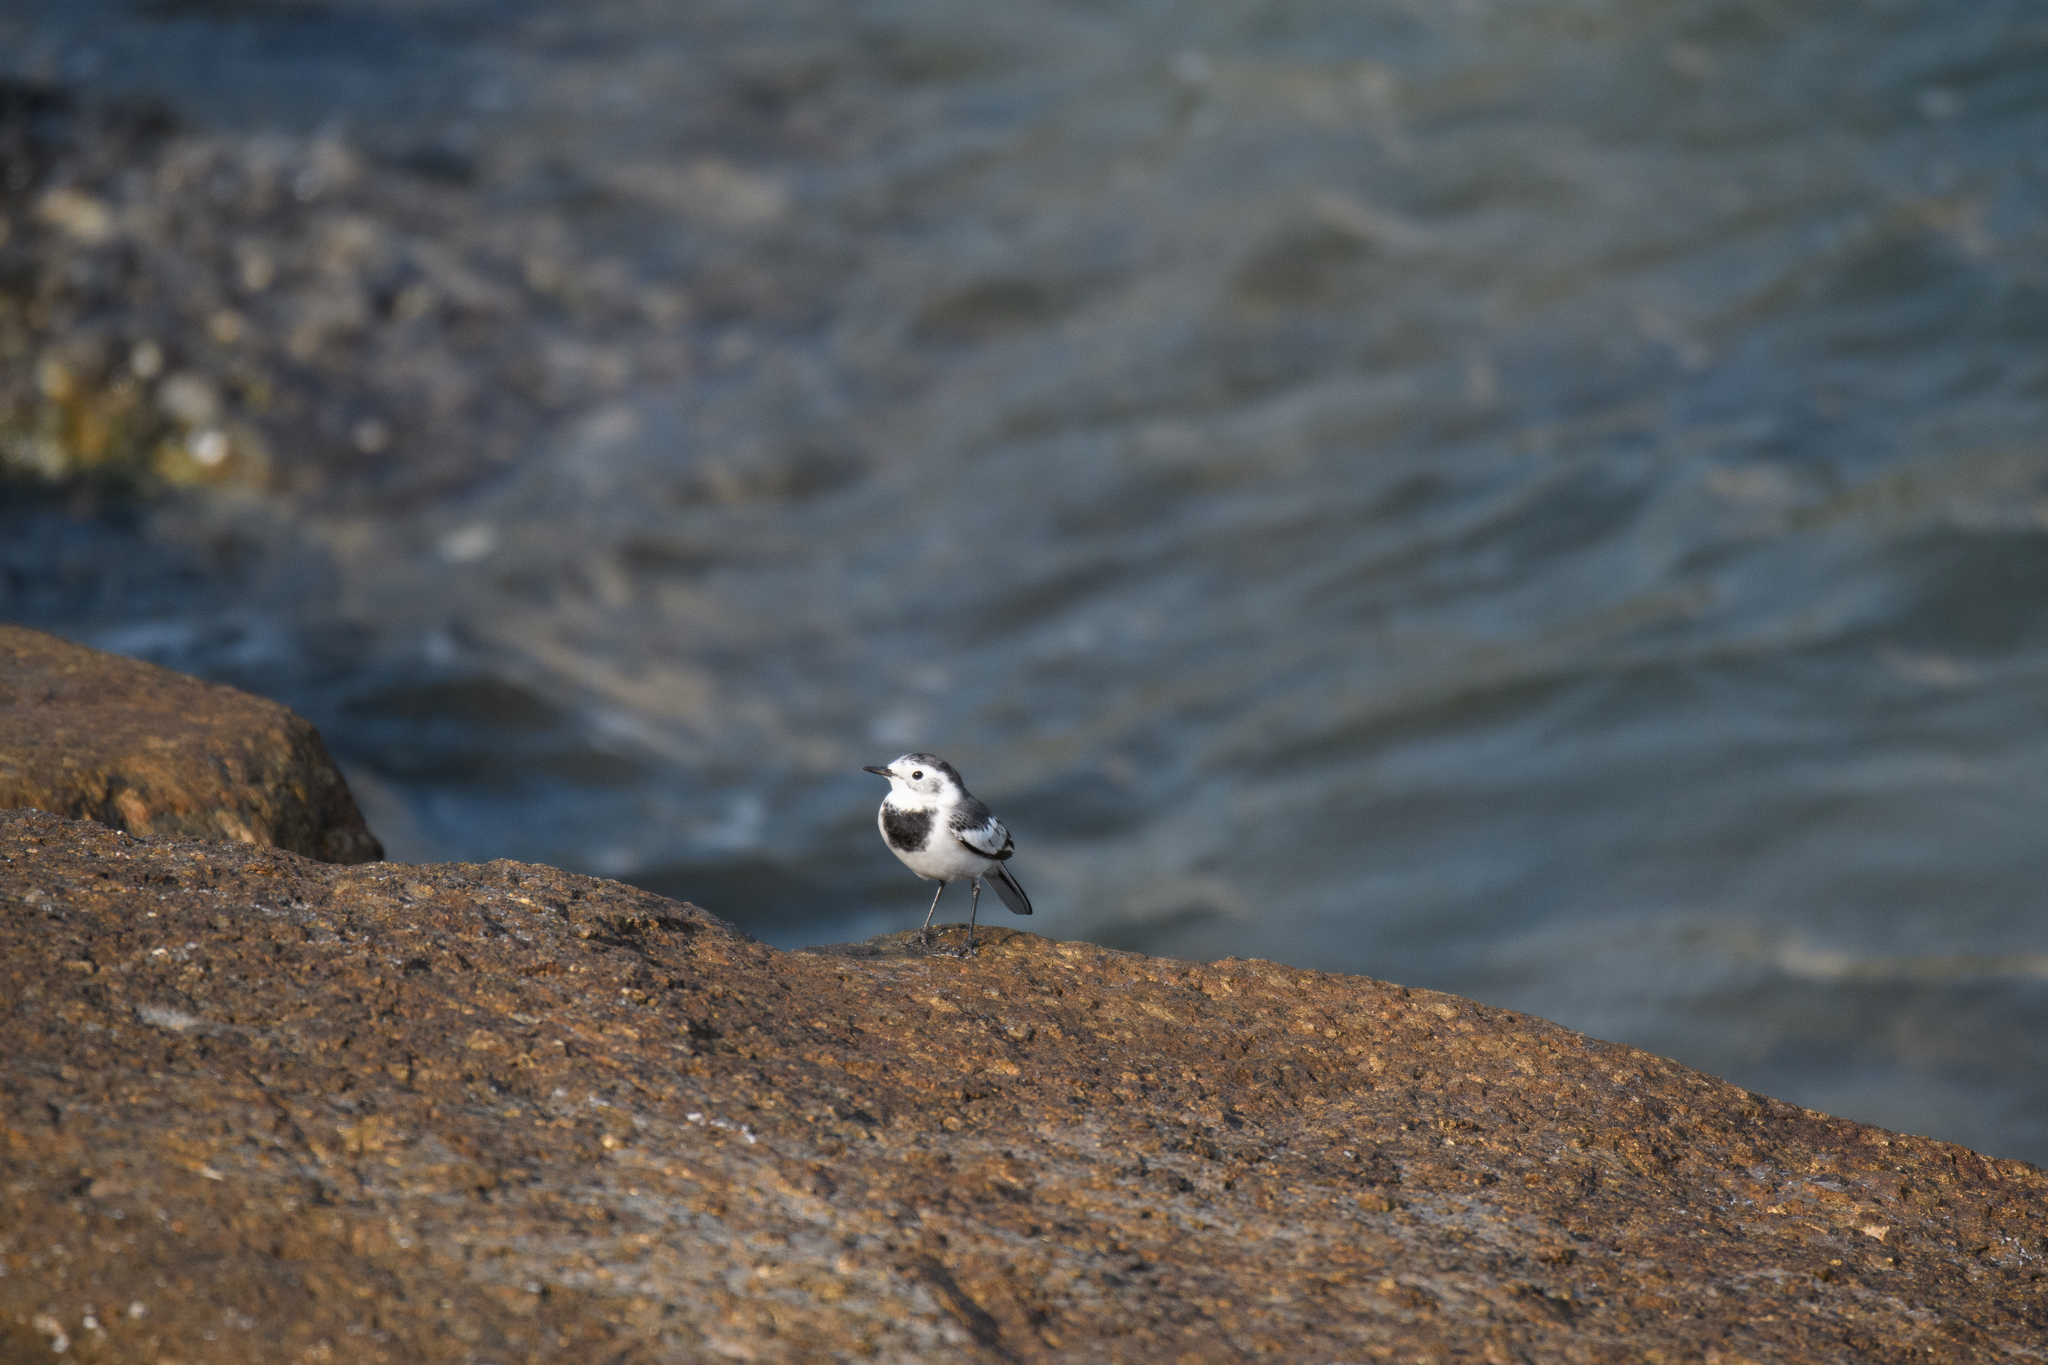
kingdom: Animalia
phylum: Chordata
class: Aves
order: Passeriformes
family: Motacillidae
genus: Motacilla
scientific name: Motacilla alba
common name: White wagtail
